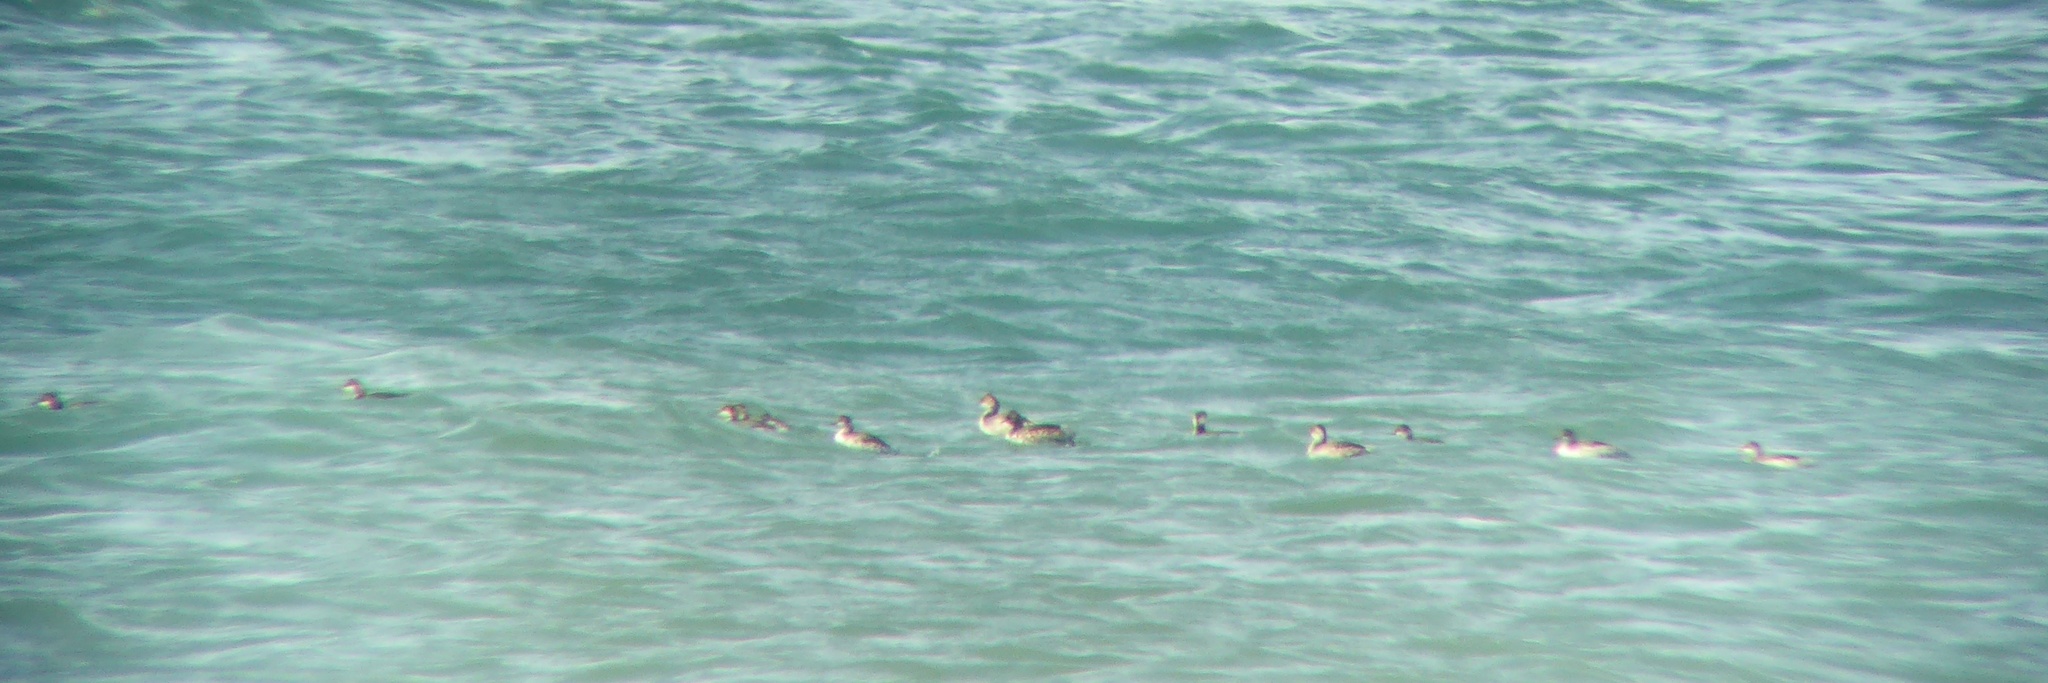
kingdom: Animalia
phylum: Chordata
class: Aves
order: Podicipediformes
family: Podicipedidae
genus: Podiceps
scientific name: Podiceps nigricollis
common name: Black-necked grebe
